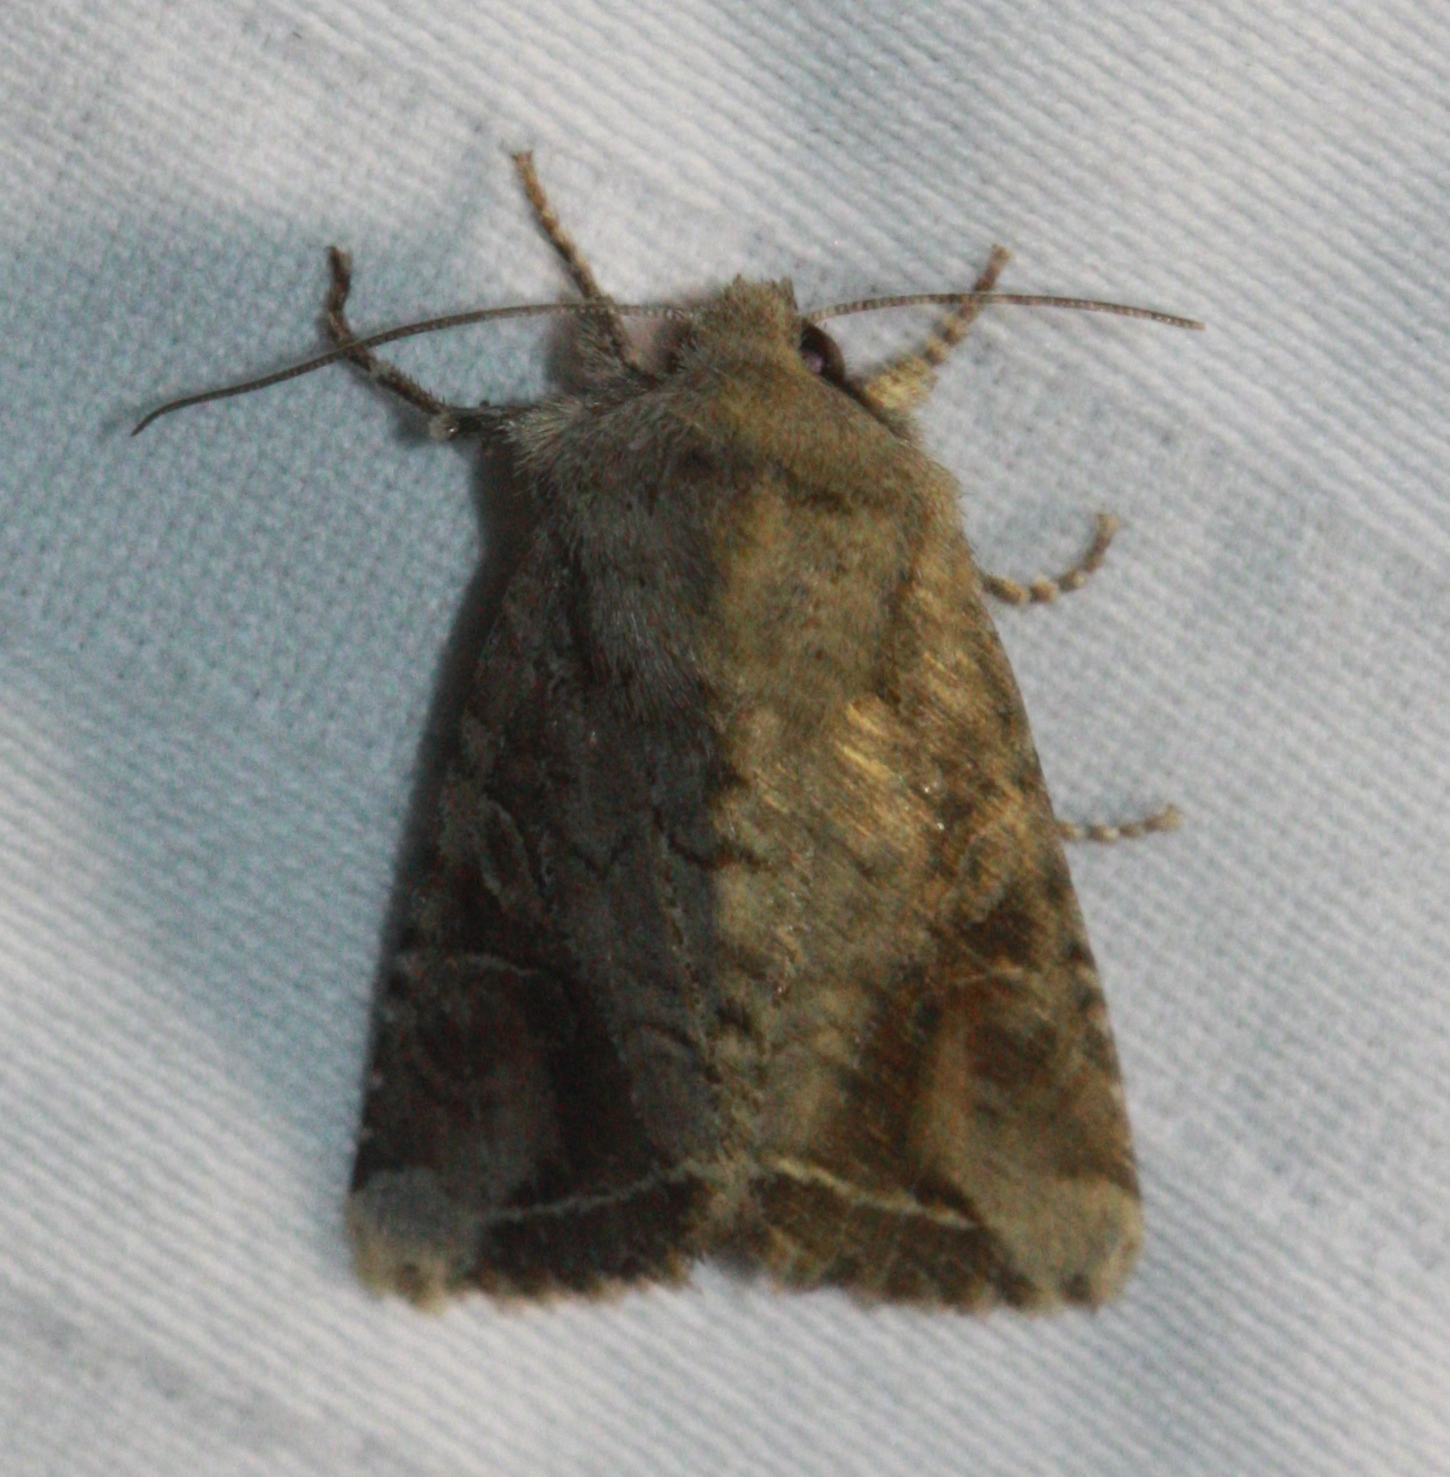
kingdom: Animalia
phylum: Arthropoda
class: Insecta
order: Lepidoptera
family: Noctuidae
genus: Egira
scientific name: Egira rubrica
